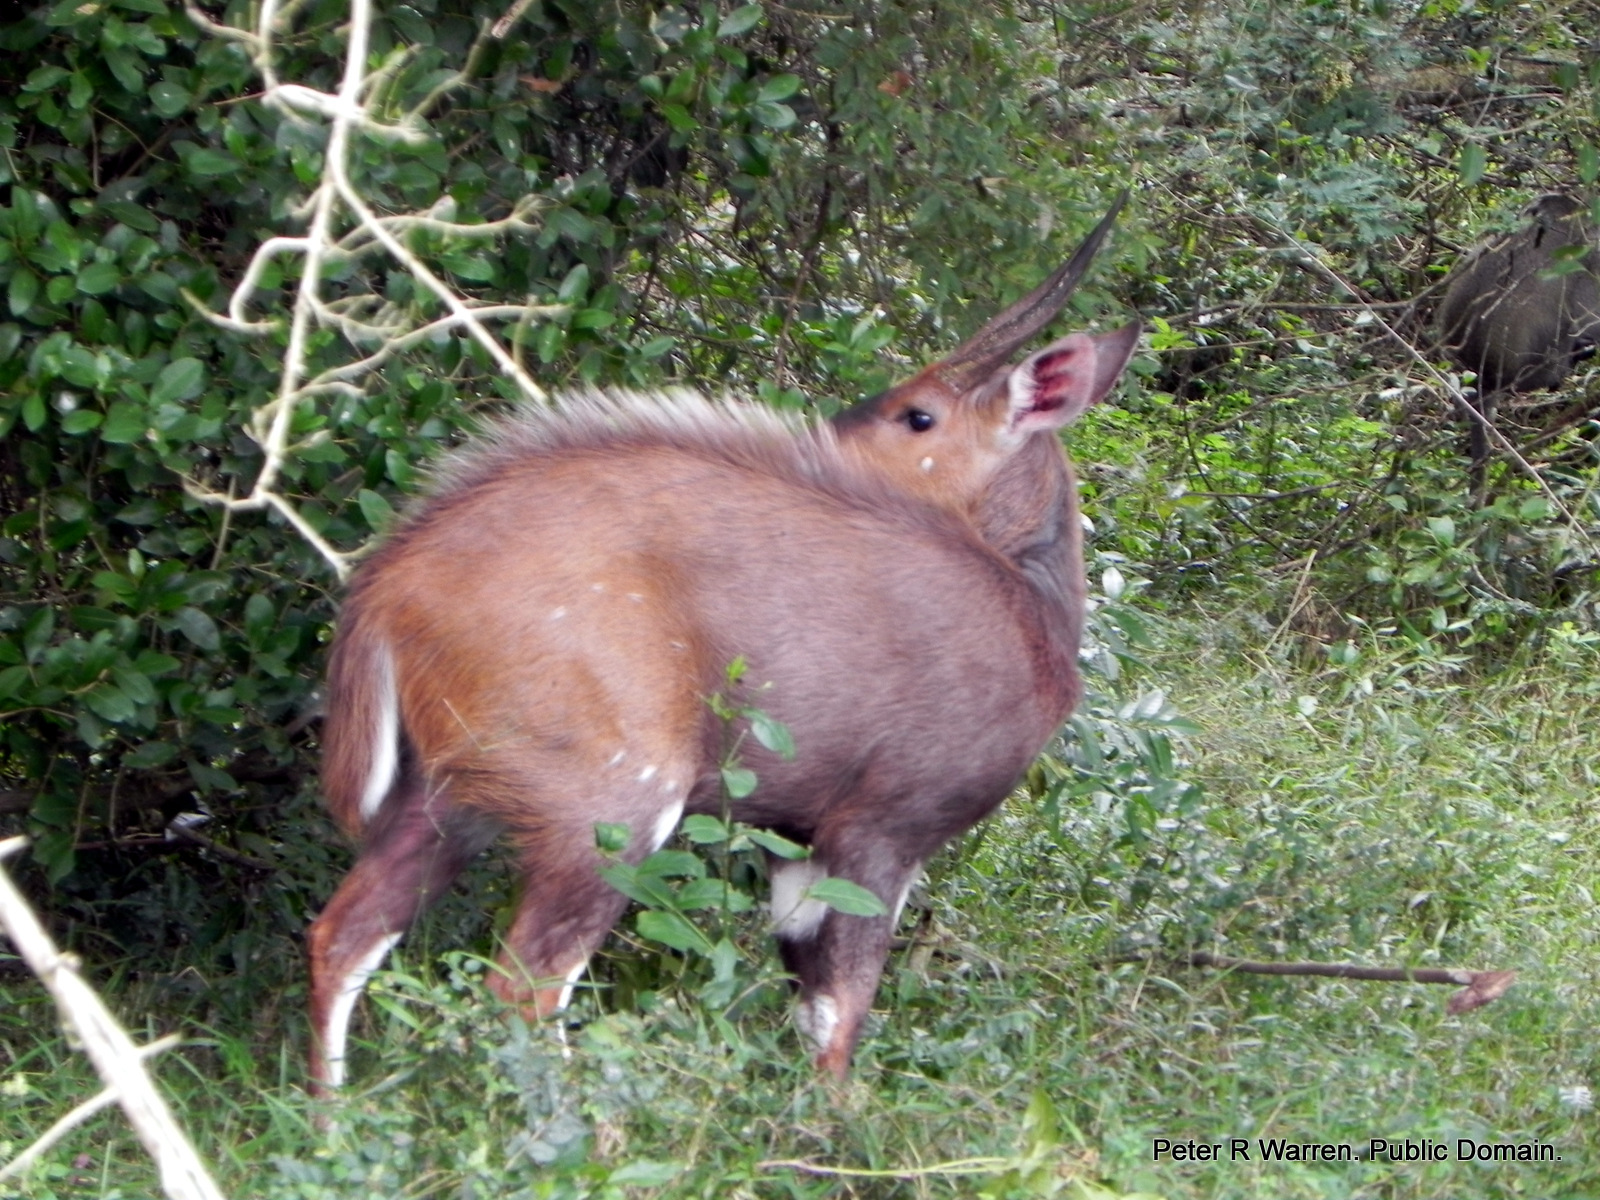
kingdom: Animalia
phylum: Chordata
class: Mammalia
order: Artiodactyla
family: Bovidae
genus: Tragelaphus
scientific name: Tragelaphus scriptus
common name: Bushbuck
